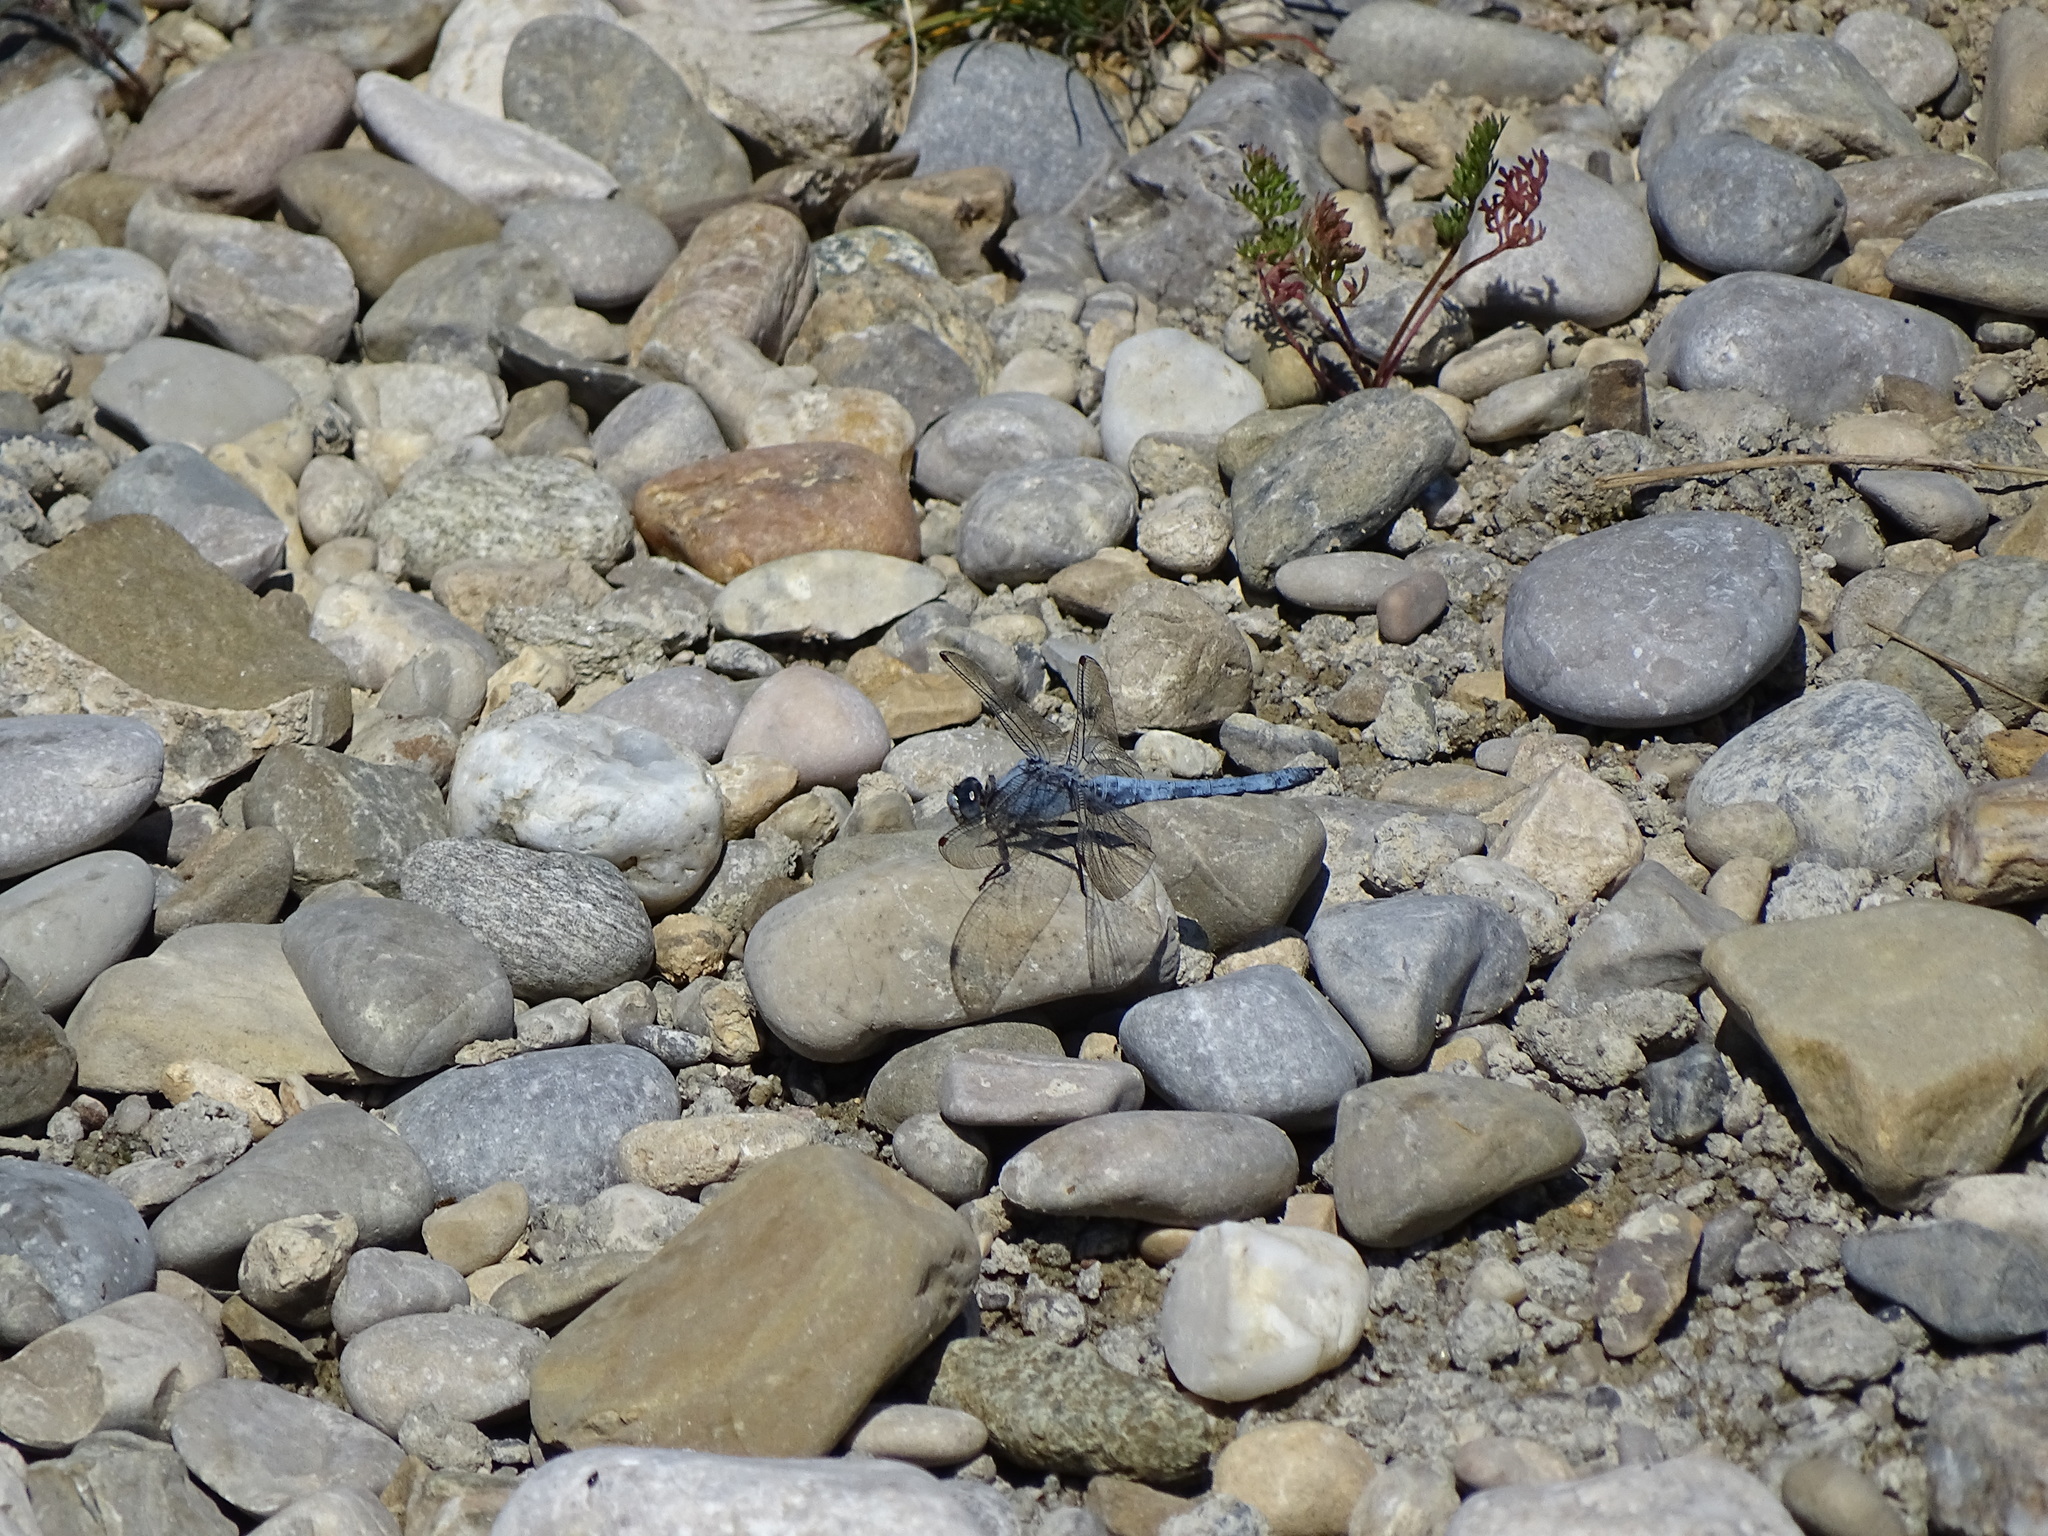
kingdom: Animalia
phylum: Arthropoda
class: Insecta
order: Odonata
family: Libellulidae
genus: Orthetrum
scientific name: Orthetrum brunneum
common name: Southern skimmer
